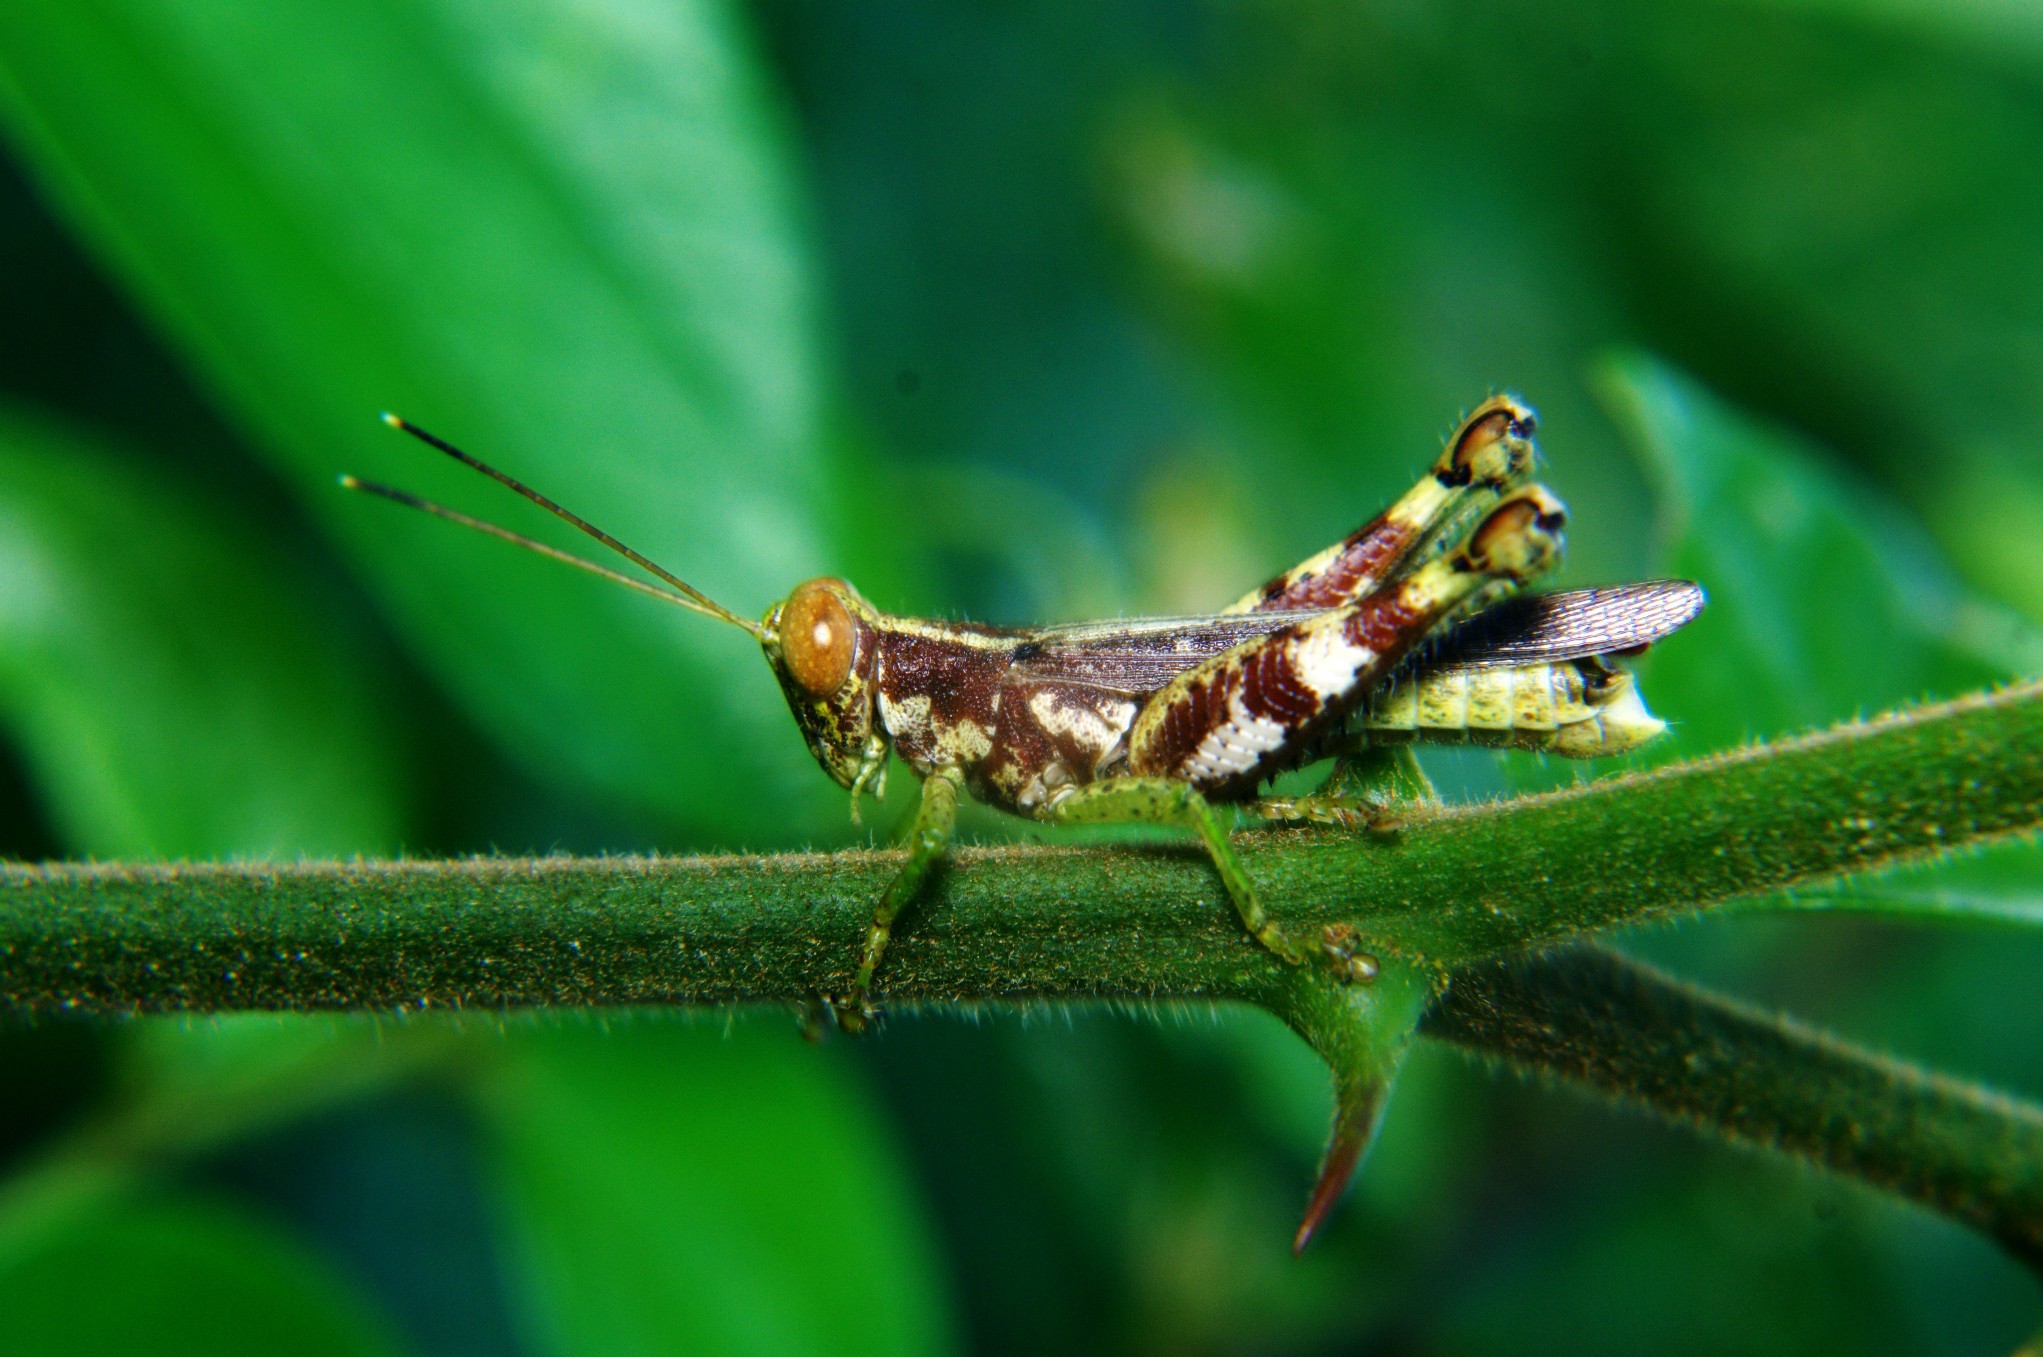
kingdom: Animalia
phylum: Arthropoda
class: Insecta
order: Orthoptera
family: Acrididae
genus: Pirithoicus
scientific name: Pirithoicus ophthalmicus
